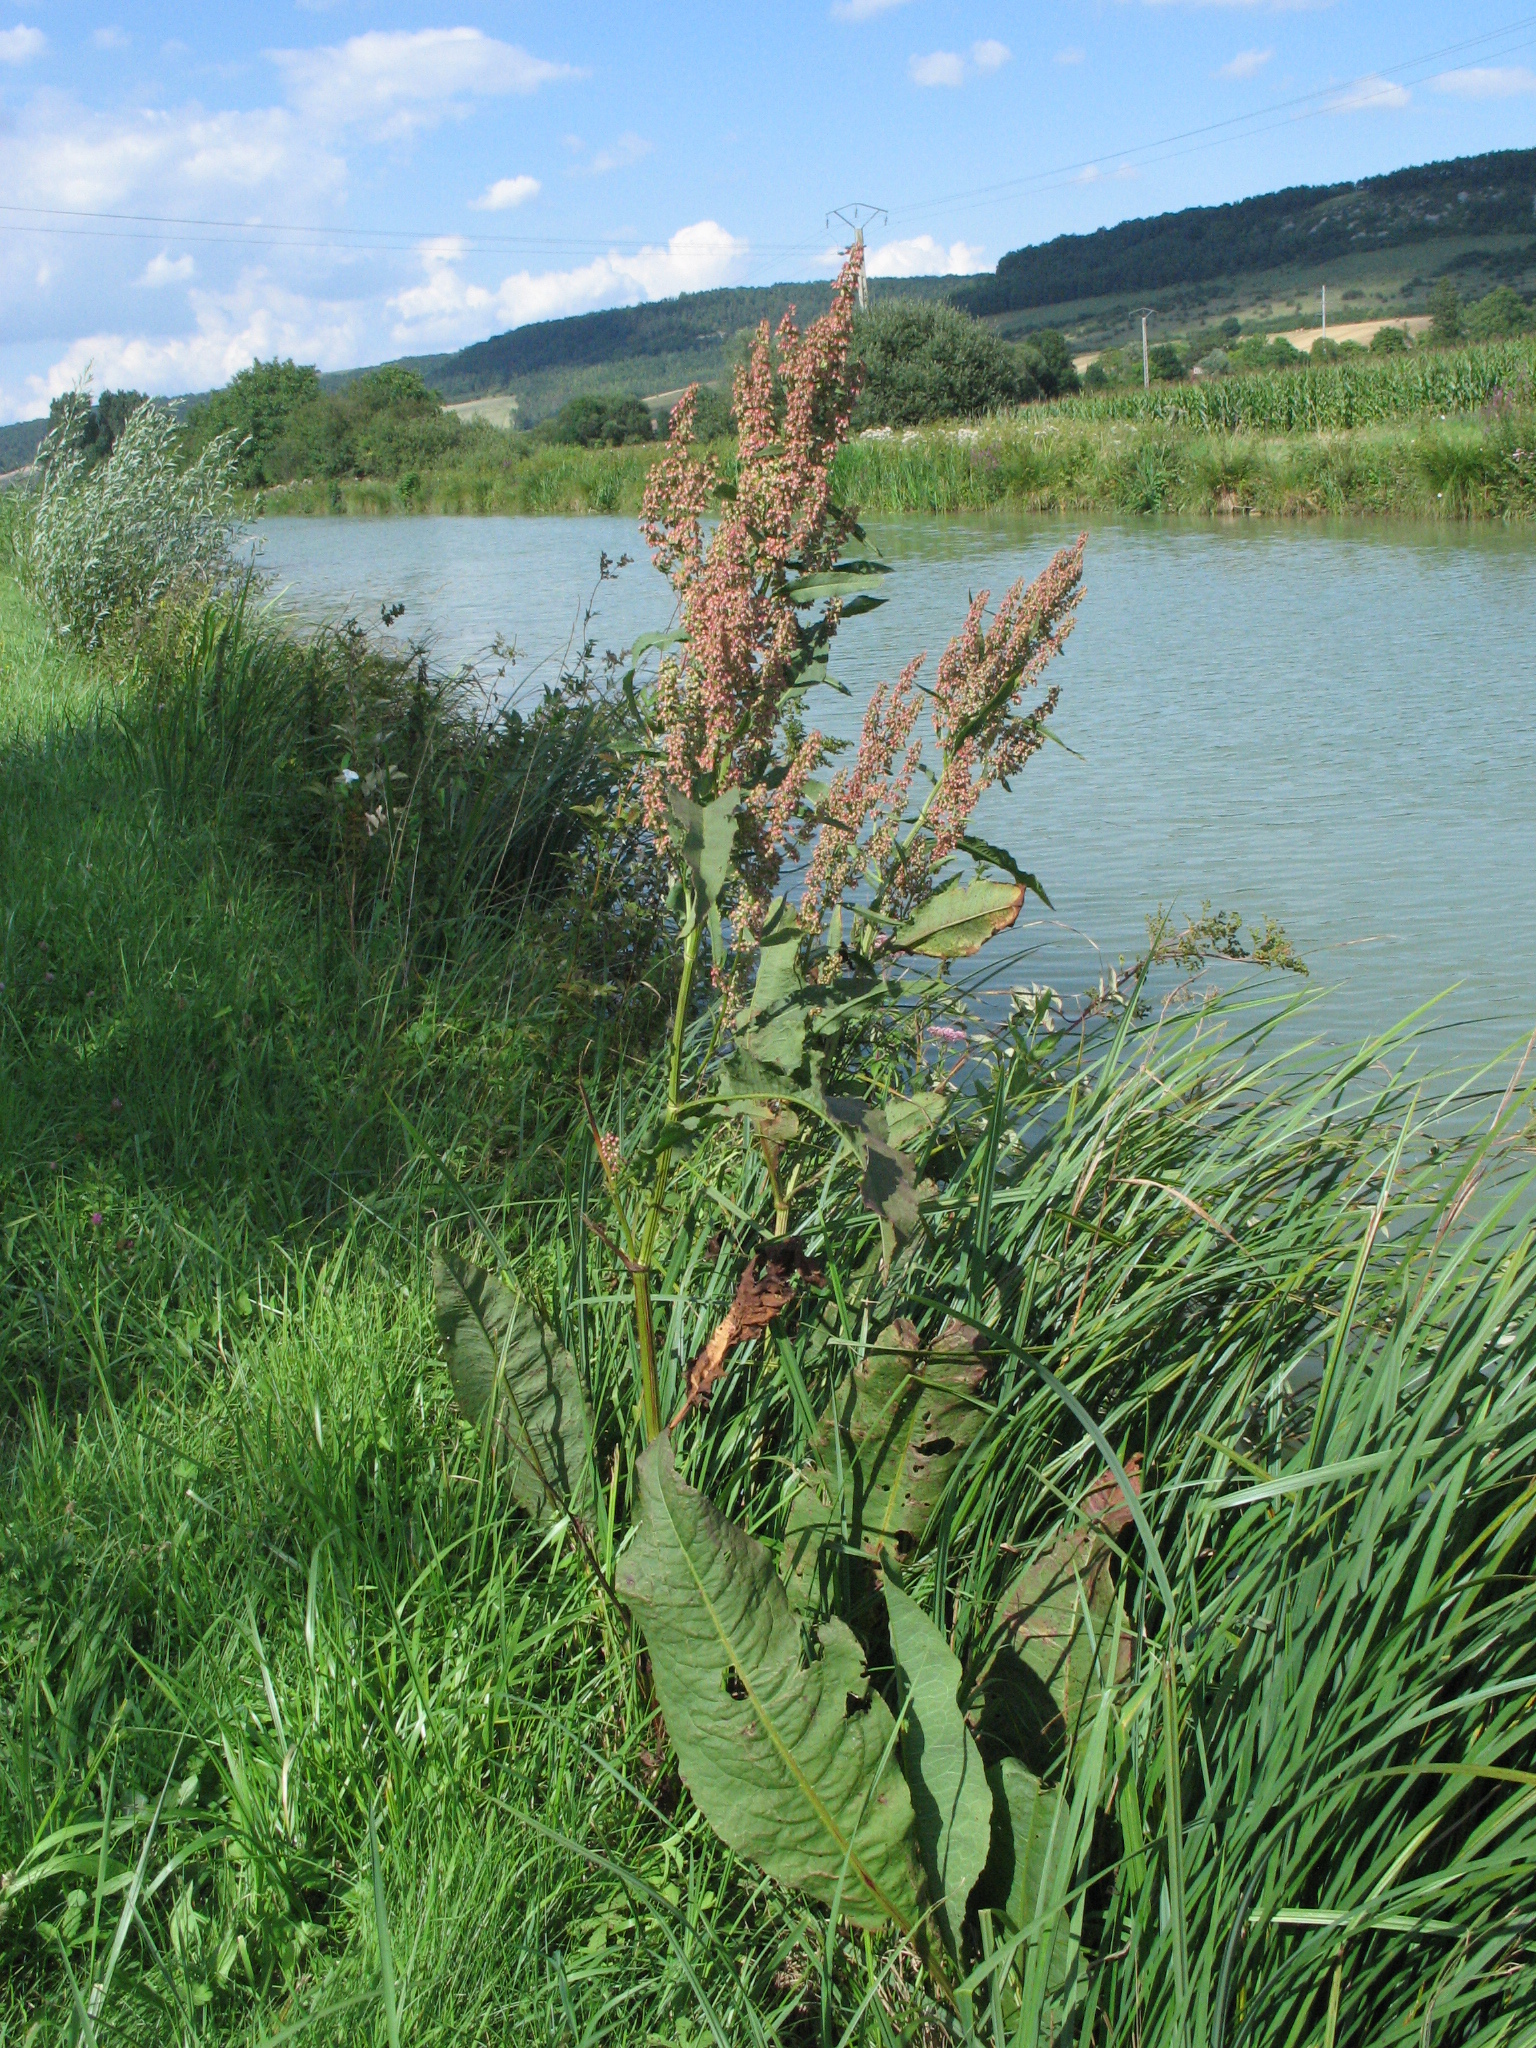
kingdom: Plantae
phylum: Tracheophyta
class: Magnoliopsida
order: Caryophyllales
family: Polygonaceae
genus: Rumex
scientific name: Rumex hydrolapathum
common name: Water dock
